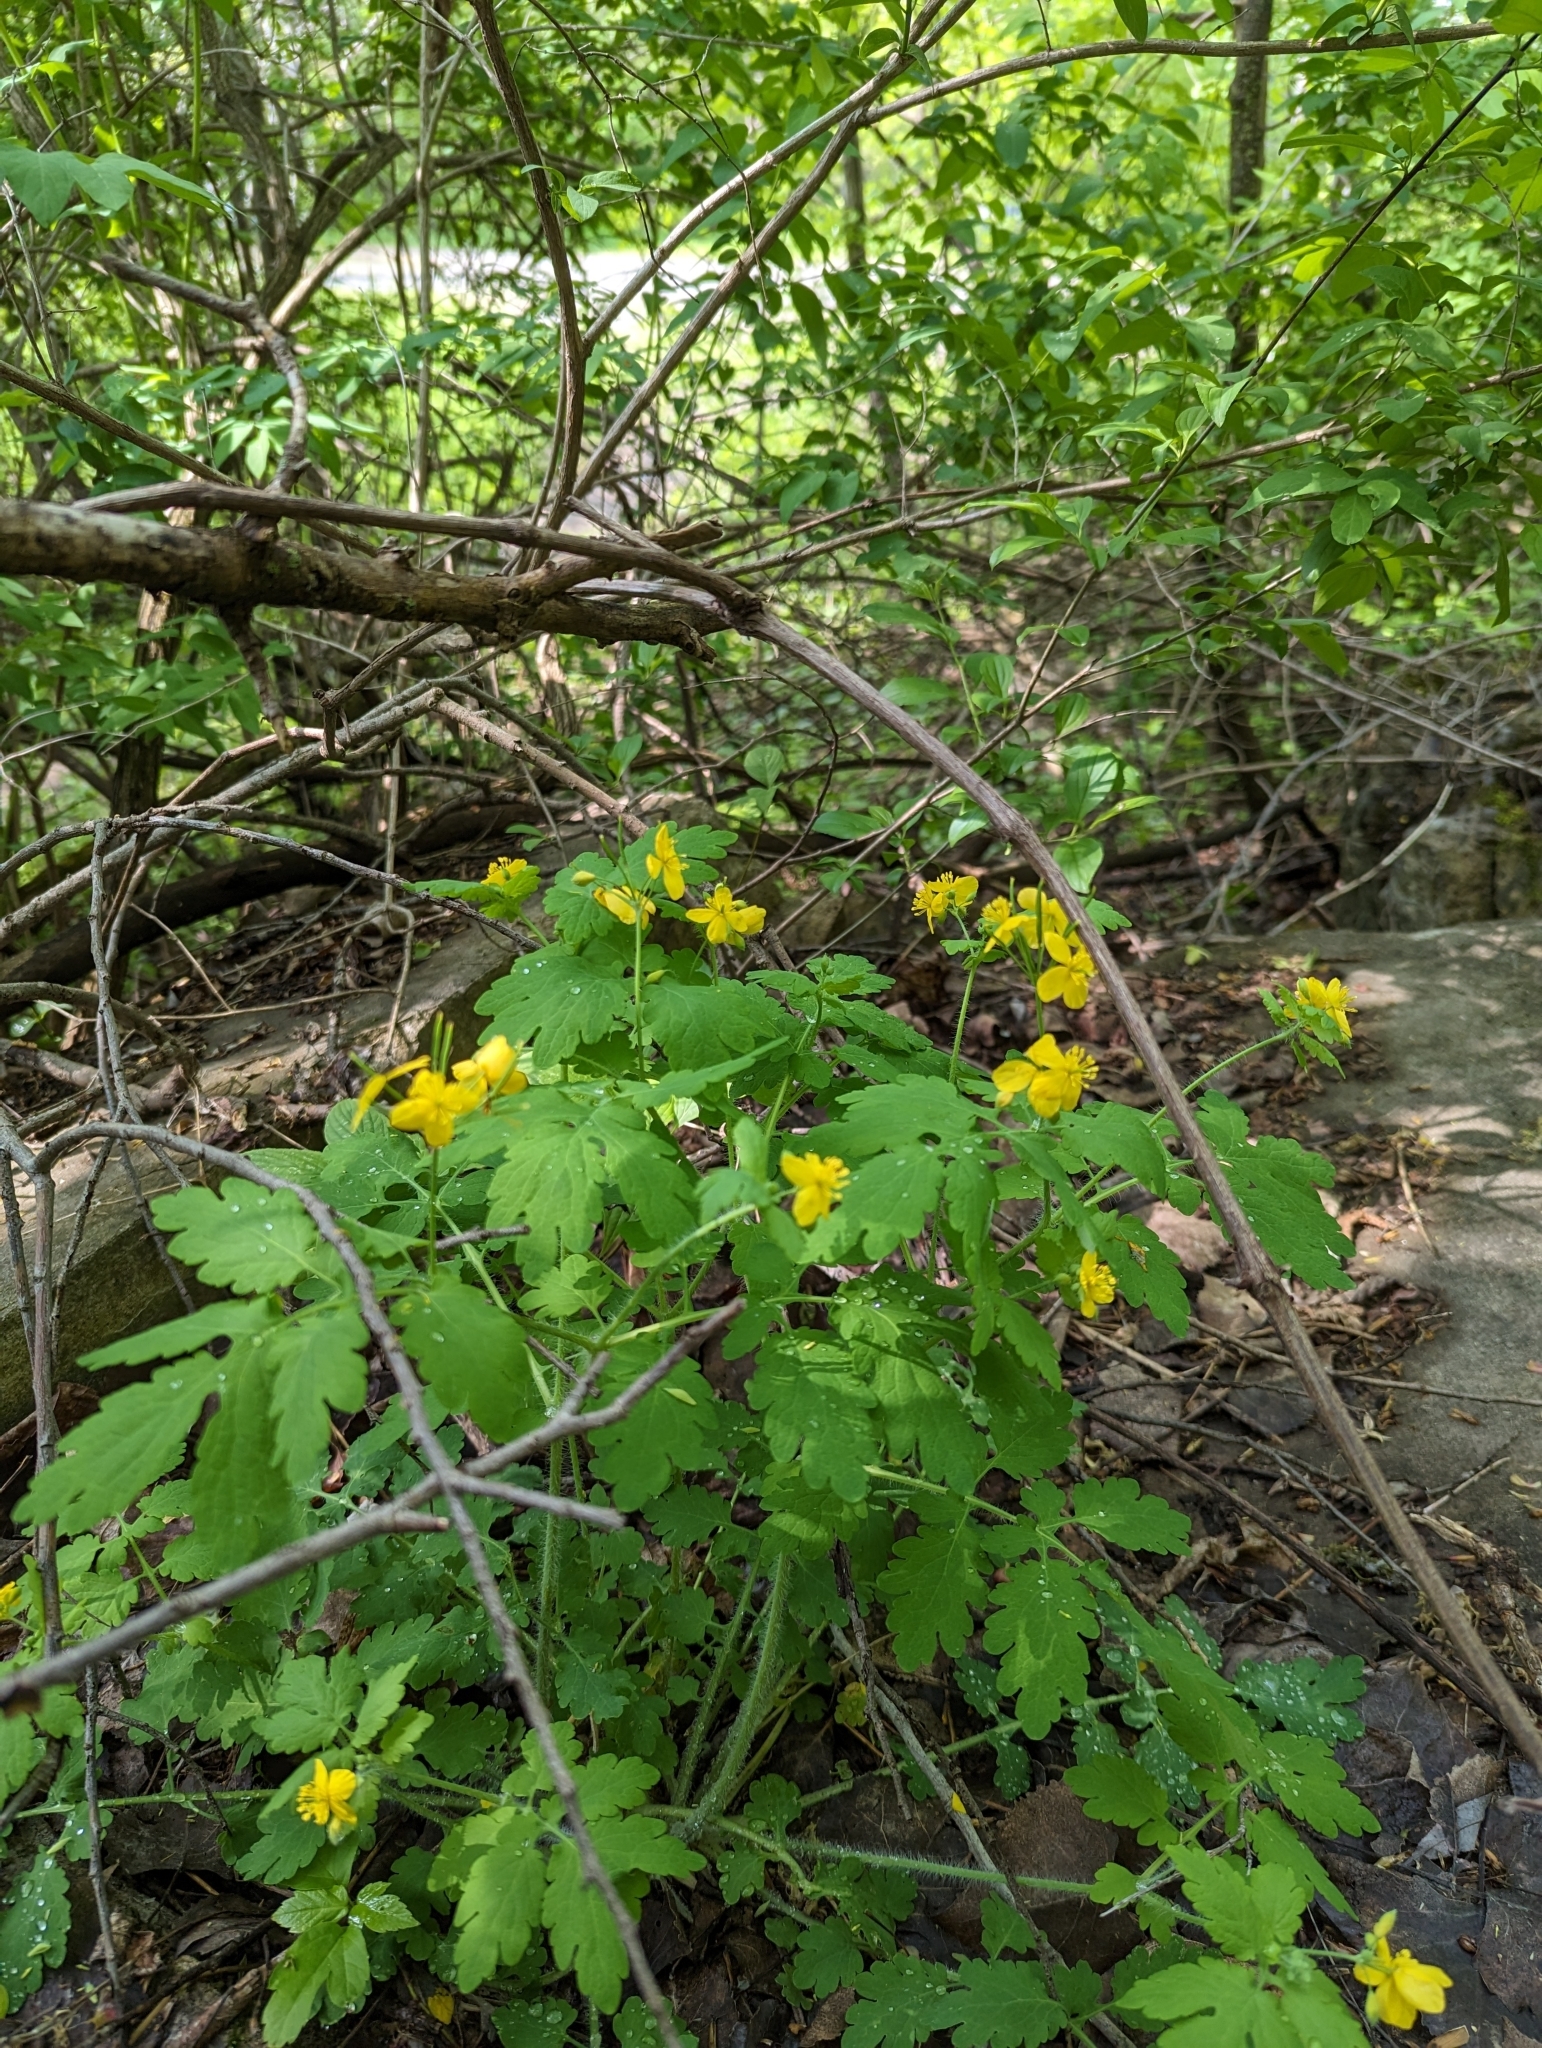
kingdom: Plantae
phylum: Tracheophyta
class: Magnoliopsida
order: Ranunculales
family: Papaveraceae
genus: Chelidonium
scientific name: Chelidonium majus
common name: Greater celandine
